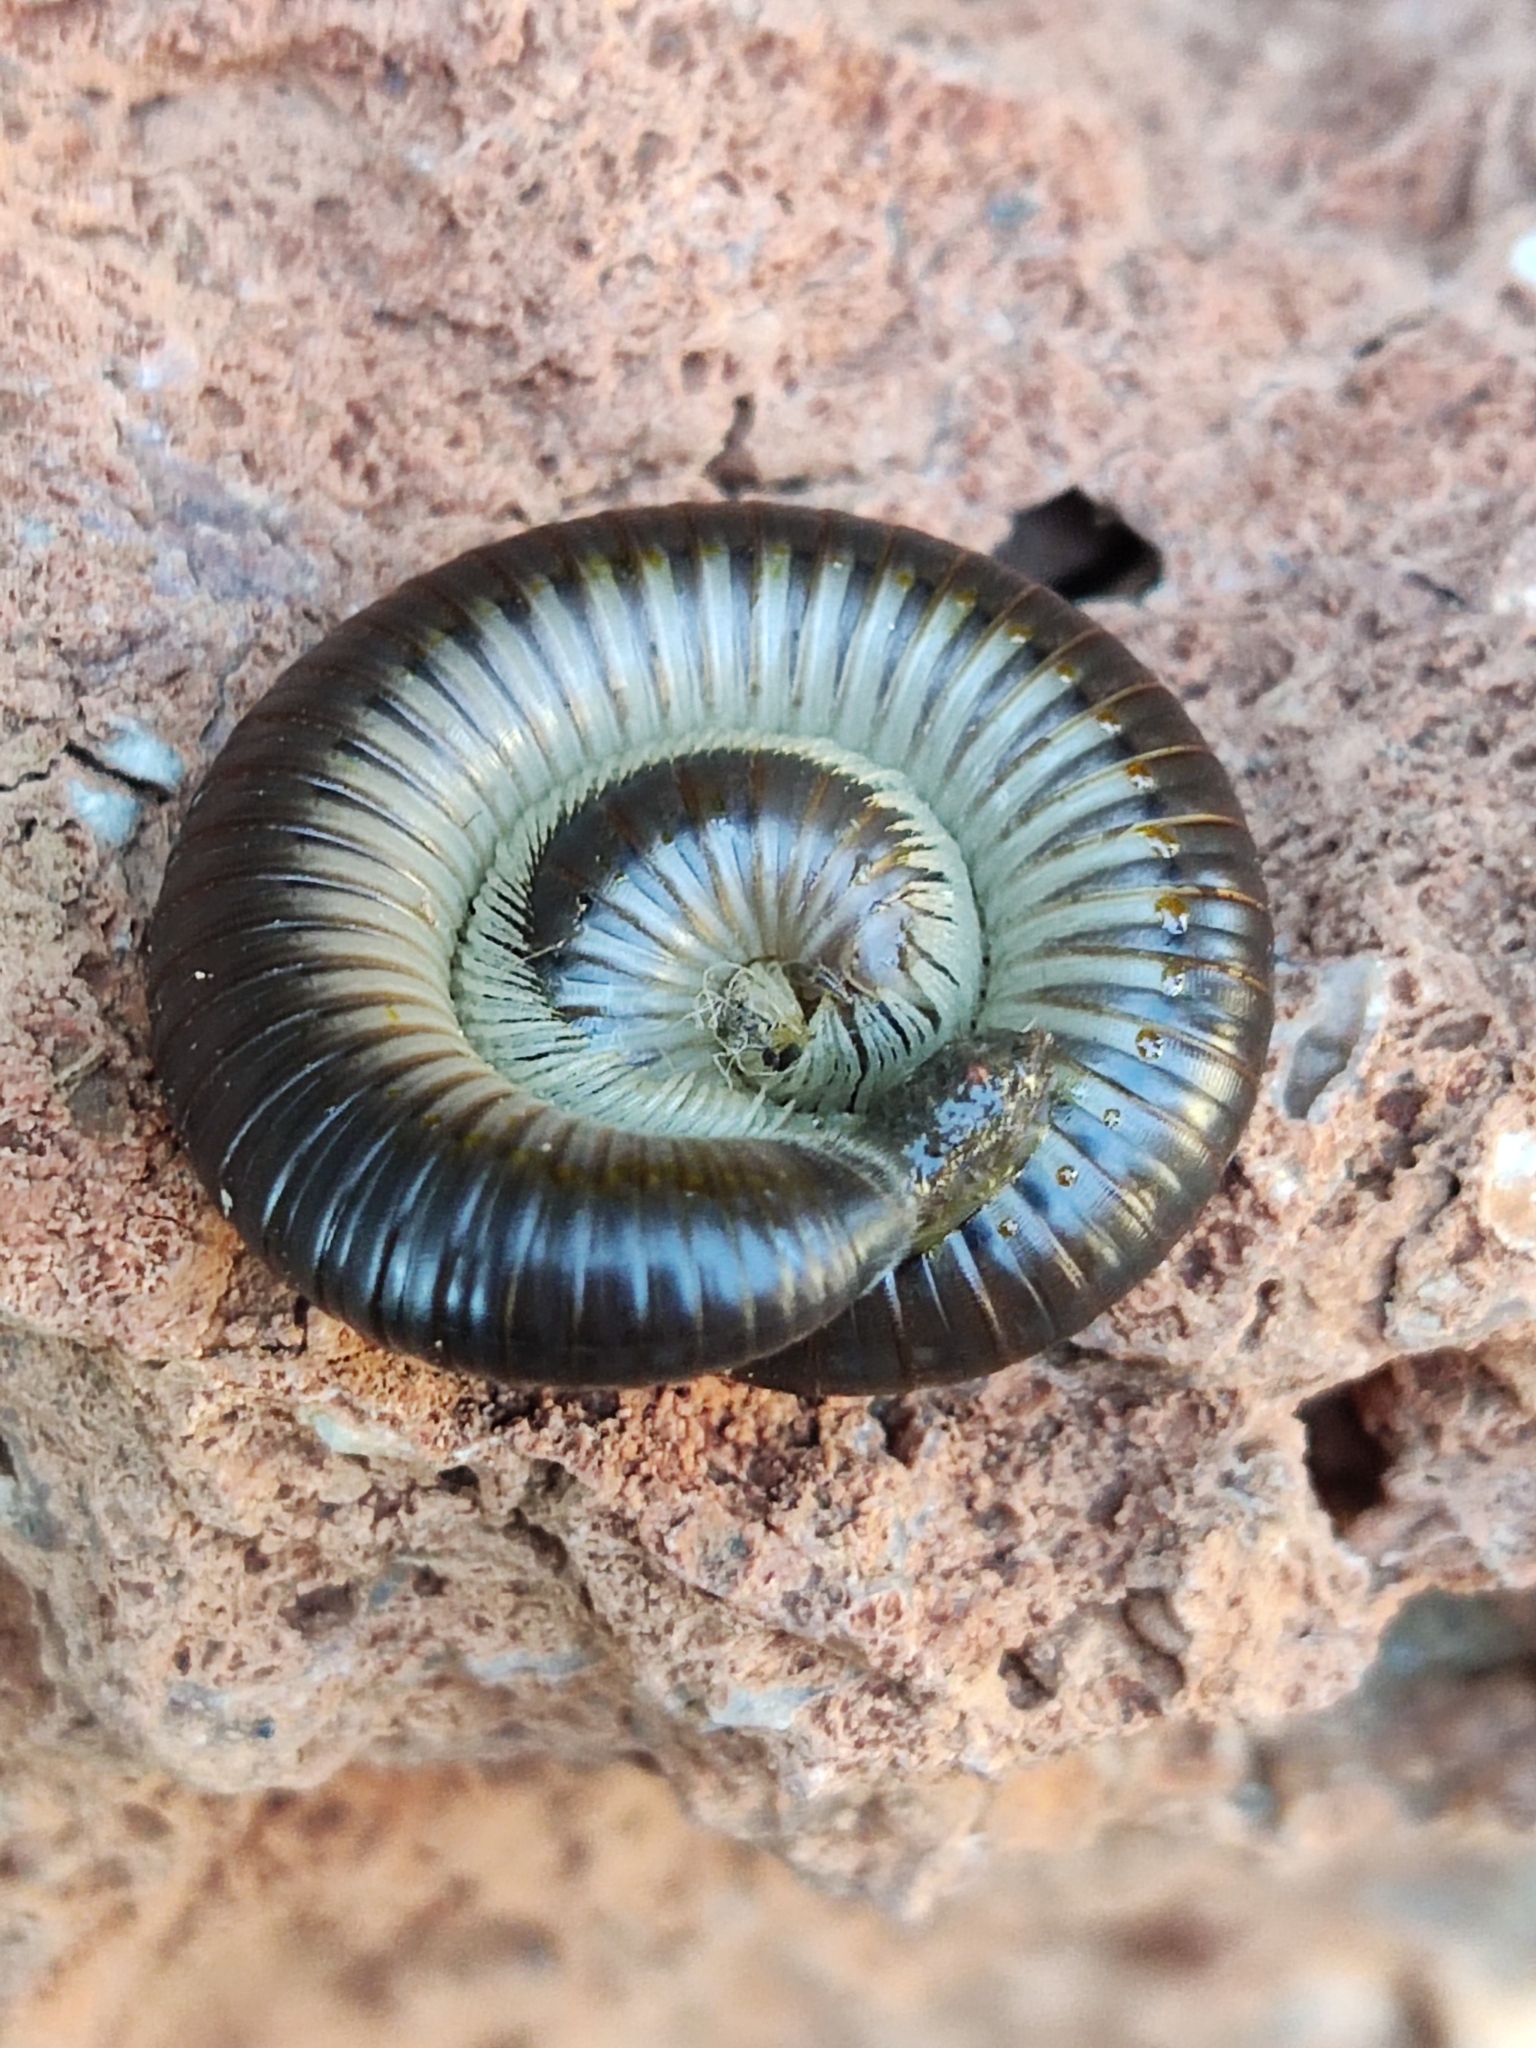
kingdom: Animalia
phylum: Arthropoda
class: Diplopoda
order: Julida
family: Julidae
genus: Pachyiulus
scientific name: Pachyiulus flavipes
